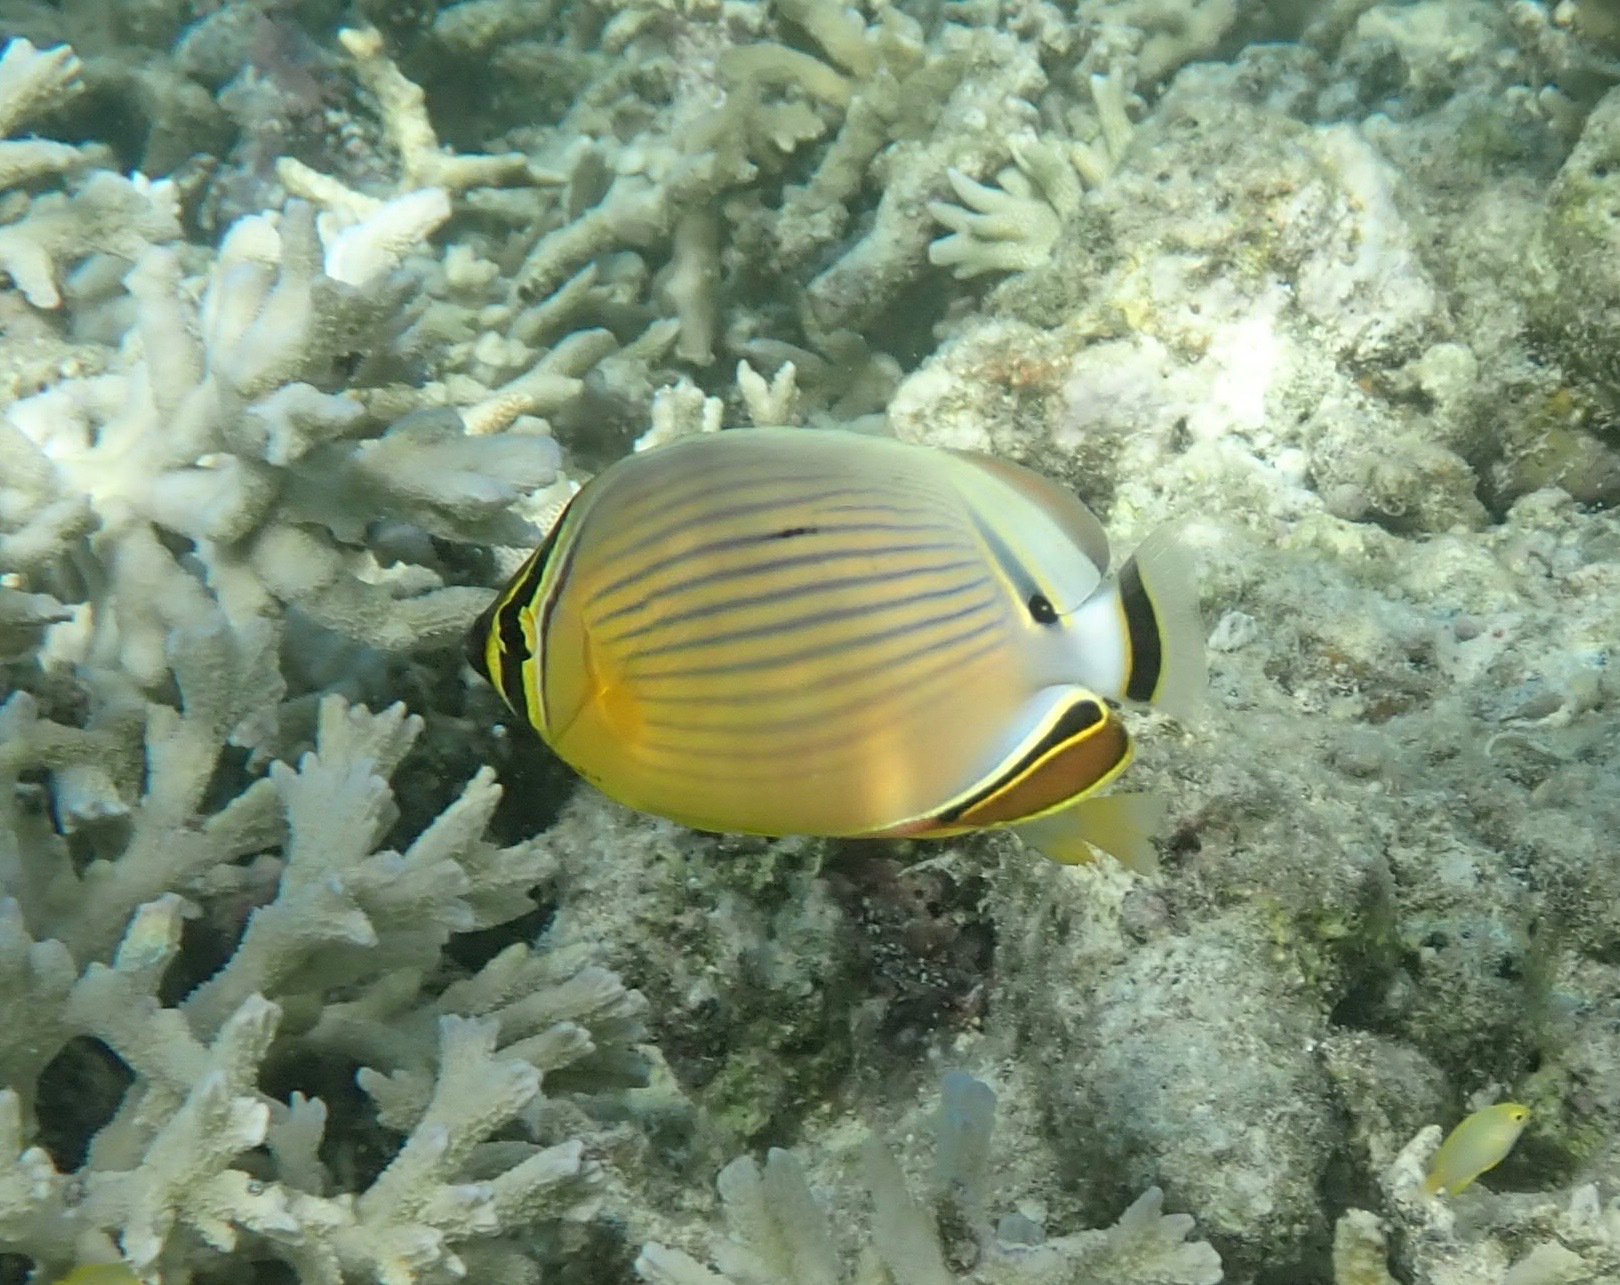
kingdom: Animalia
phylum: Chordata
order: Perciformes
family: Chaetodontidae
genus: Chaetodon
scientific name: Chaetodon lunulatus
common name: Redfin butterflyfish
